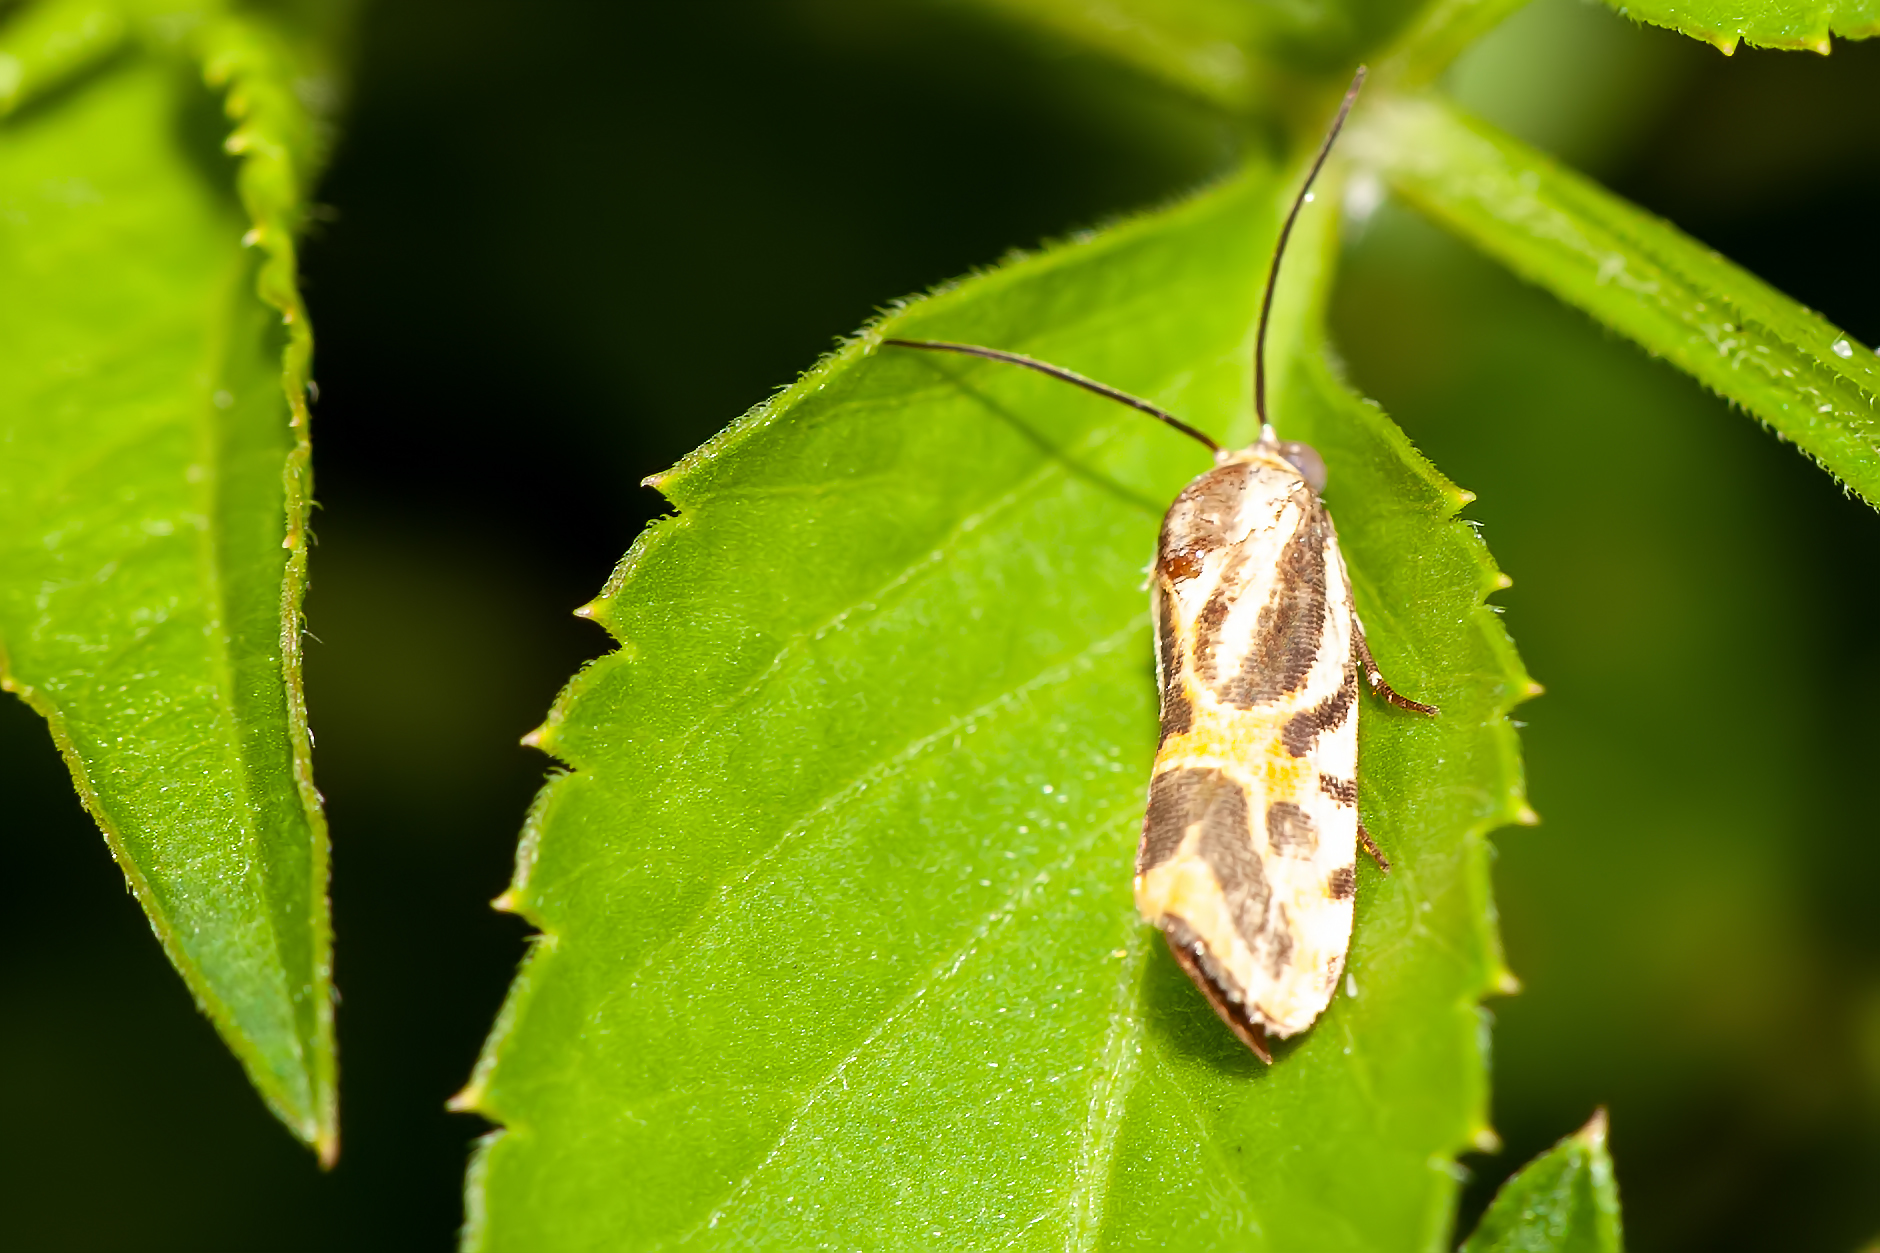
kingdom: Animalia
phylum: Arthropoda
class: Insecta
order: Lepidoptera
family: Noctuidae
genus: Acontia
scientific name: Acontia onagrus
